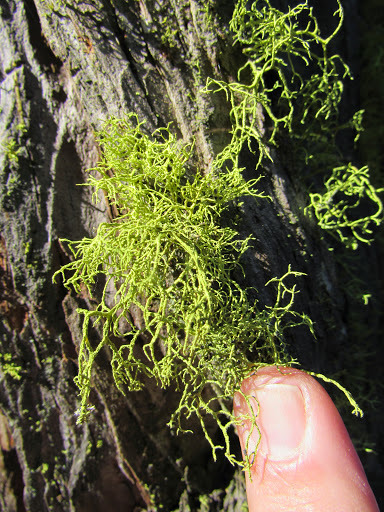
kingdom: Fungi
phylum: Ascomycota
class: Lecanoromycetes
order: Lecanorales
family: Parmeliaceae
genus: Letharia
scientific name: Letharia vulpina
